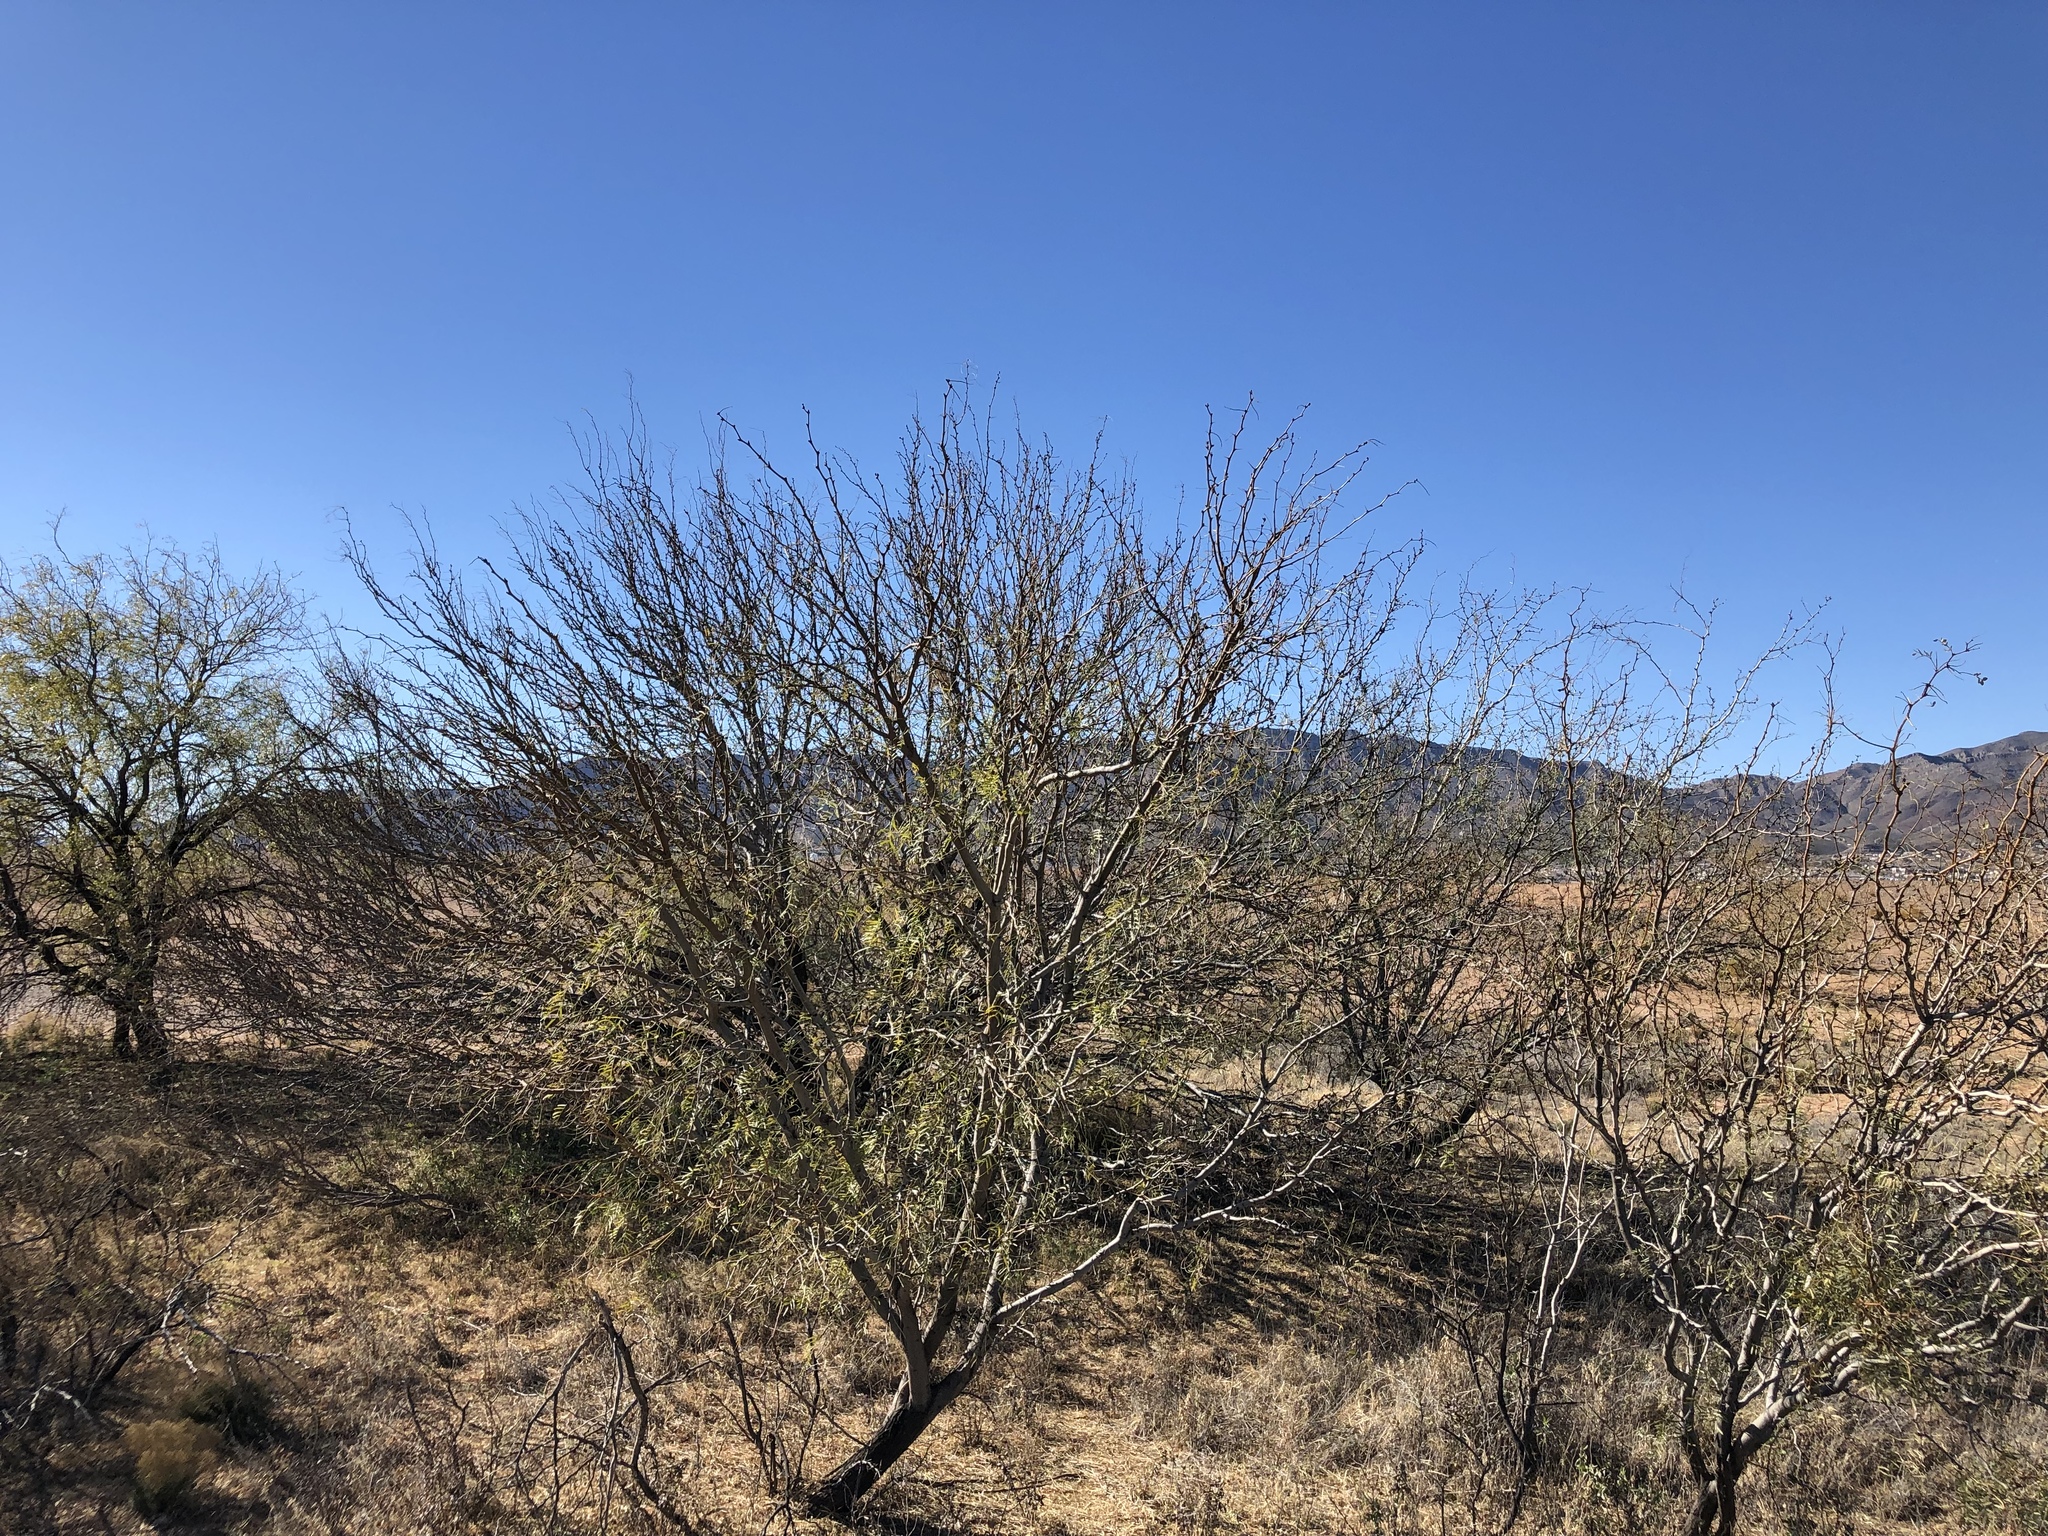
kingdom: Plantae
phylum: Tracheophyta
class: Magnoliopsida
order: Fabales
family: Fabaceae
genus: Prosopis
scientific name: Prosopis glandulosa
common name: Honey mesquite
